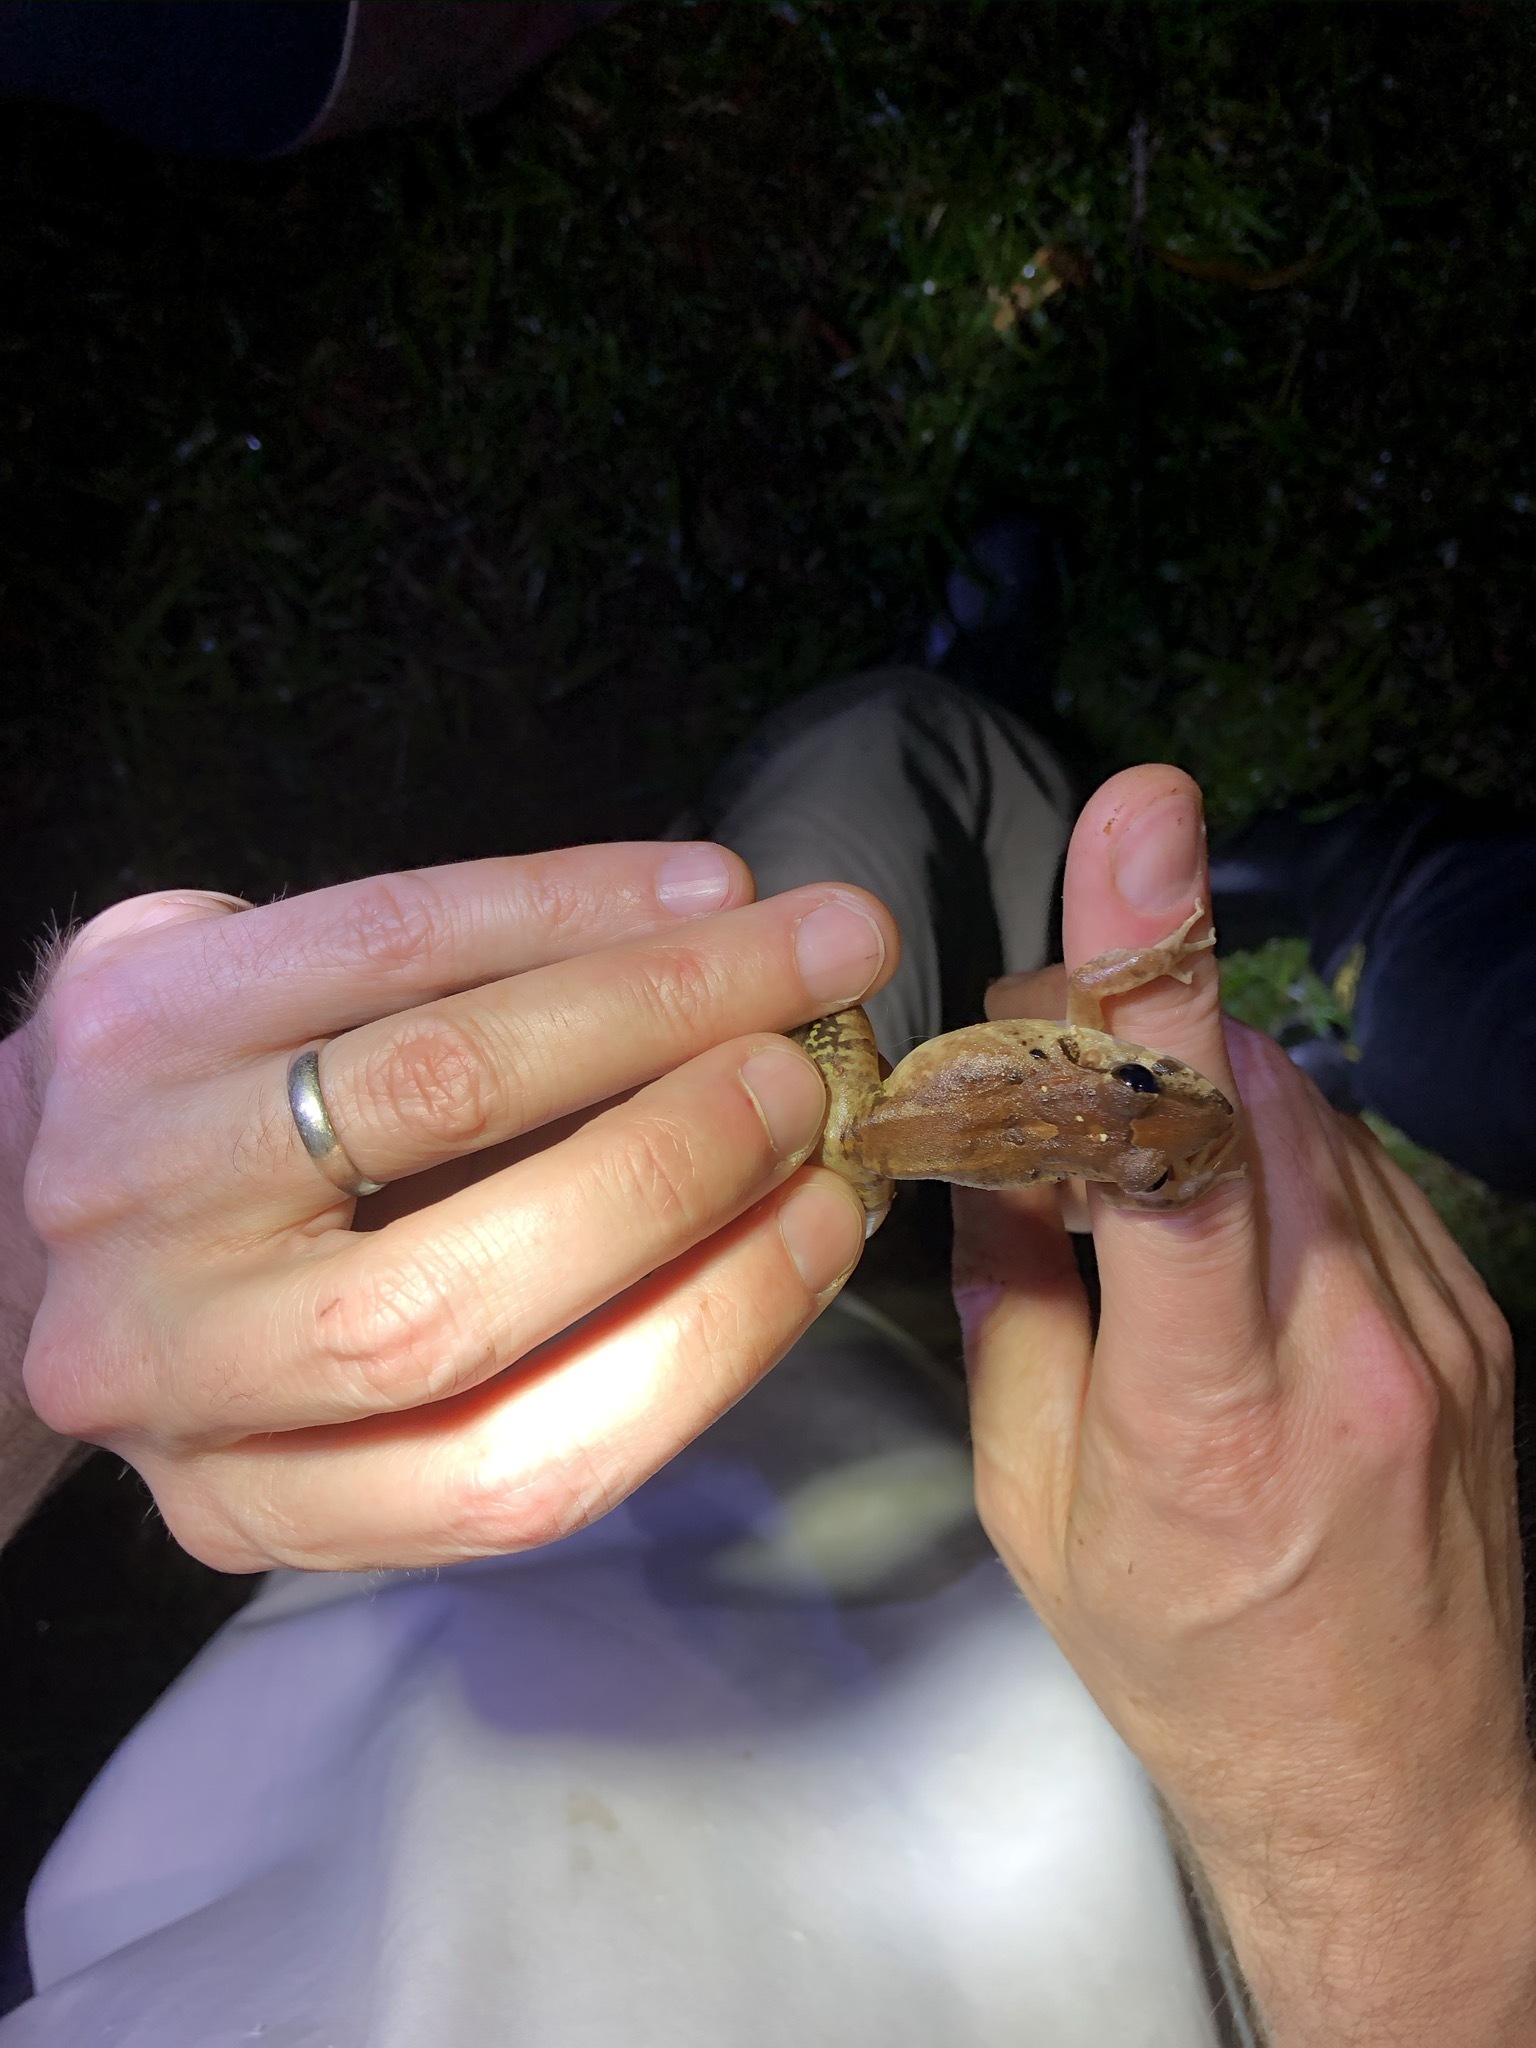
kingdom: Animalia
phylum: Chordata
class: Amphibia
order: Anura
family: Craugastoridae
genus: Craugastor
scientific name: Craugastor fitzingeri
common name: Fitzinger's robber frog
